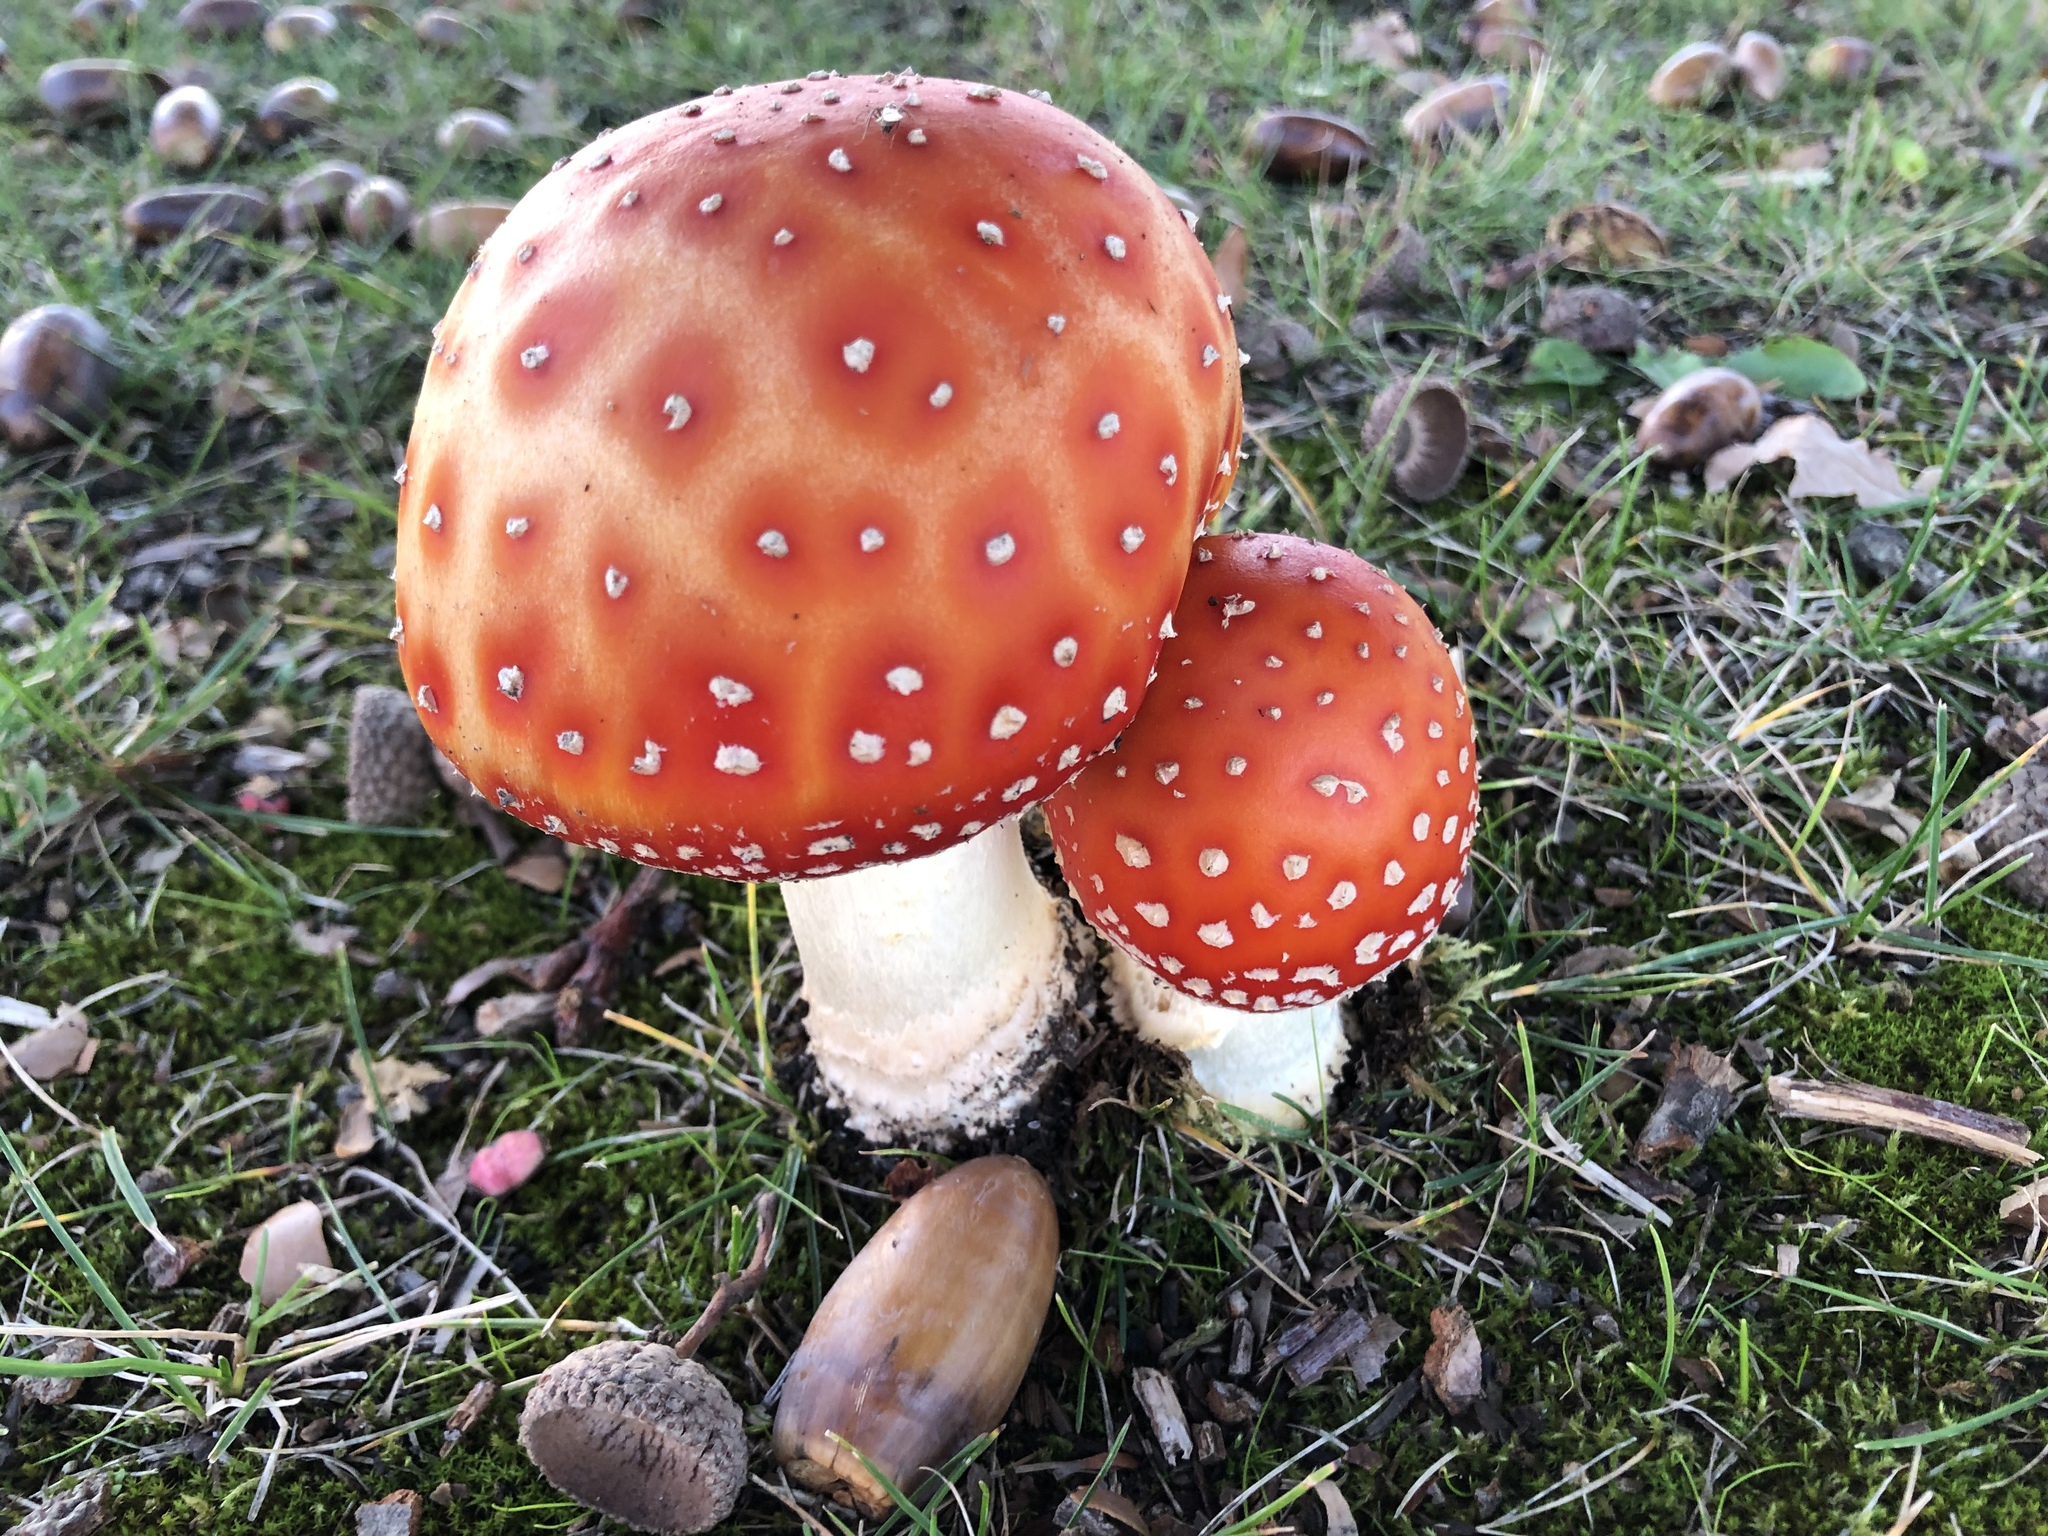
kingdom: Fungi
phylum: Basidiomycota
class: Agaricomycetes
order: Agaricales
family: Amanitaceae
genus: Amanita
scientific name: Amanita muscaria
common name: Fly agaric
